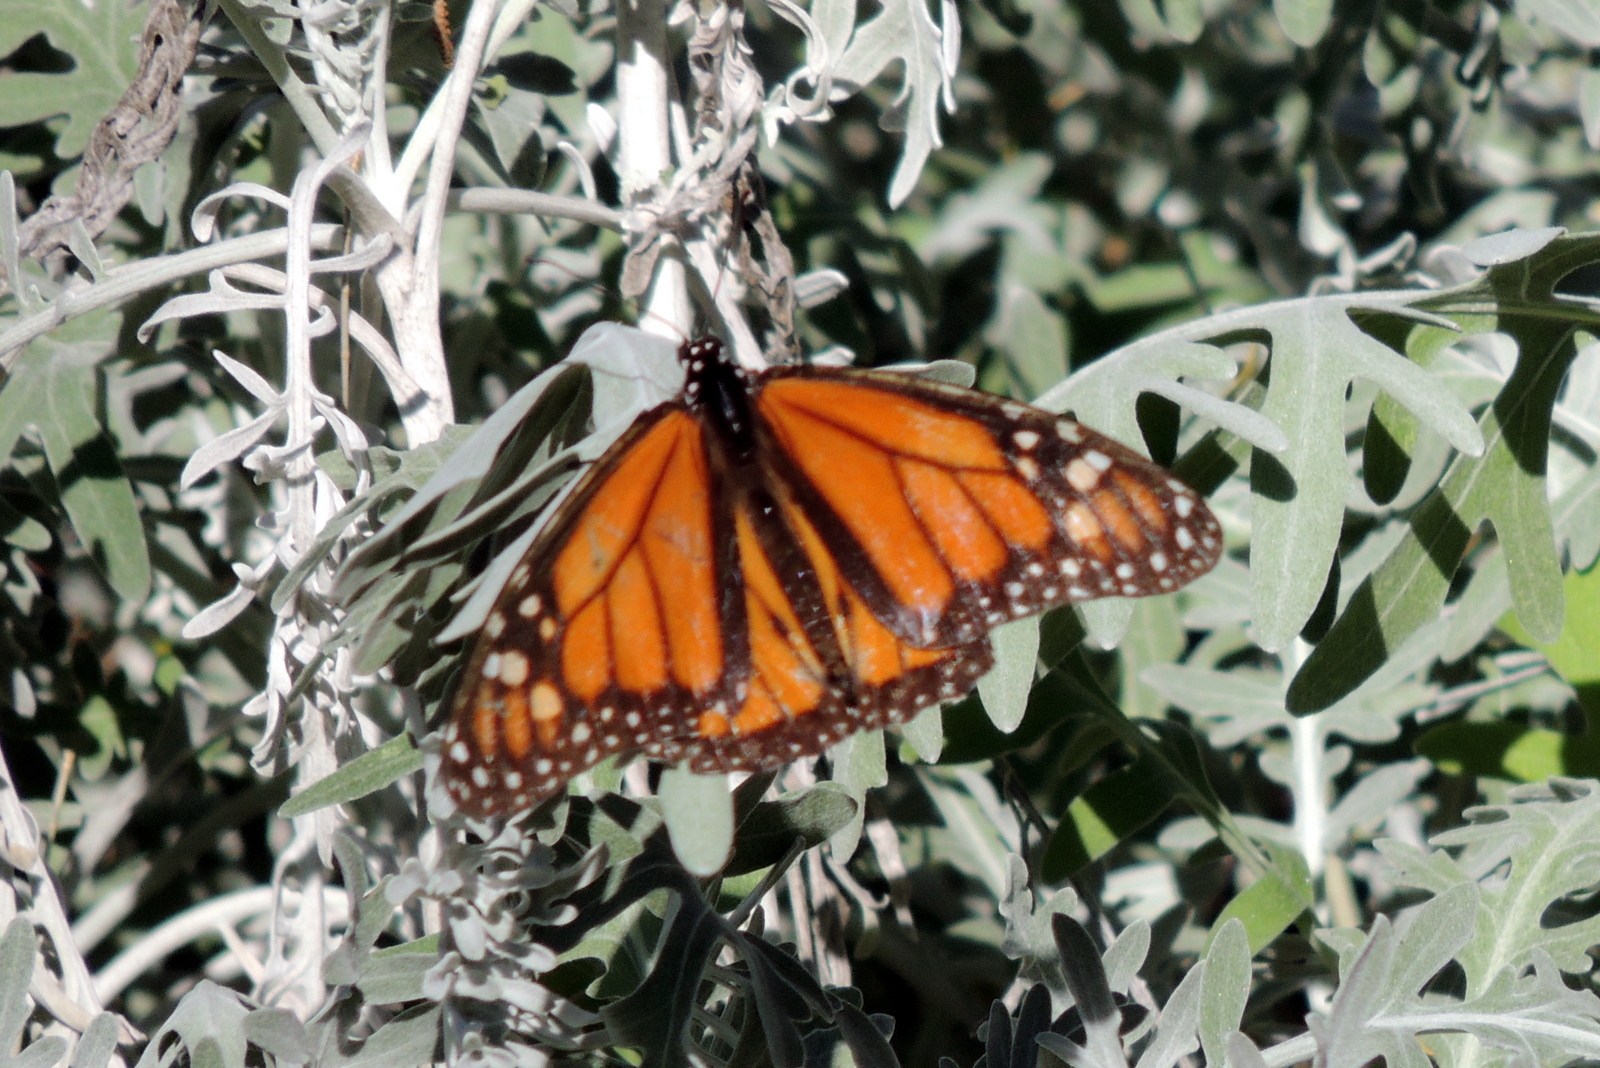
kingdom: Animalia
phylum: Arthropoda
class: Insecta
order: Lepidoptera
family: Nymphalidae
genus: Danaus
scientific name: Danaus plexippus
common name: Monarch
